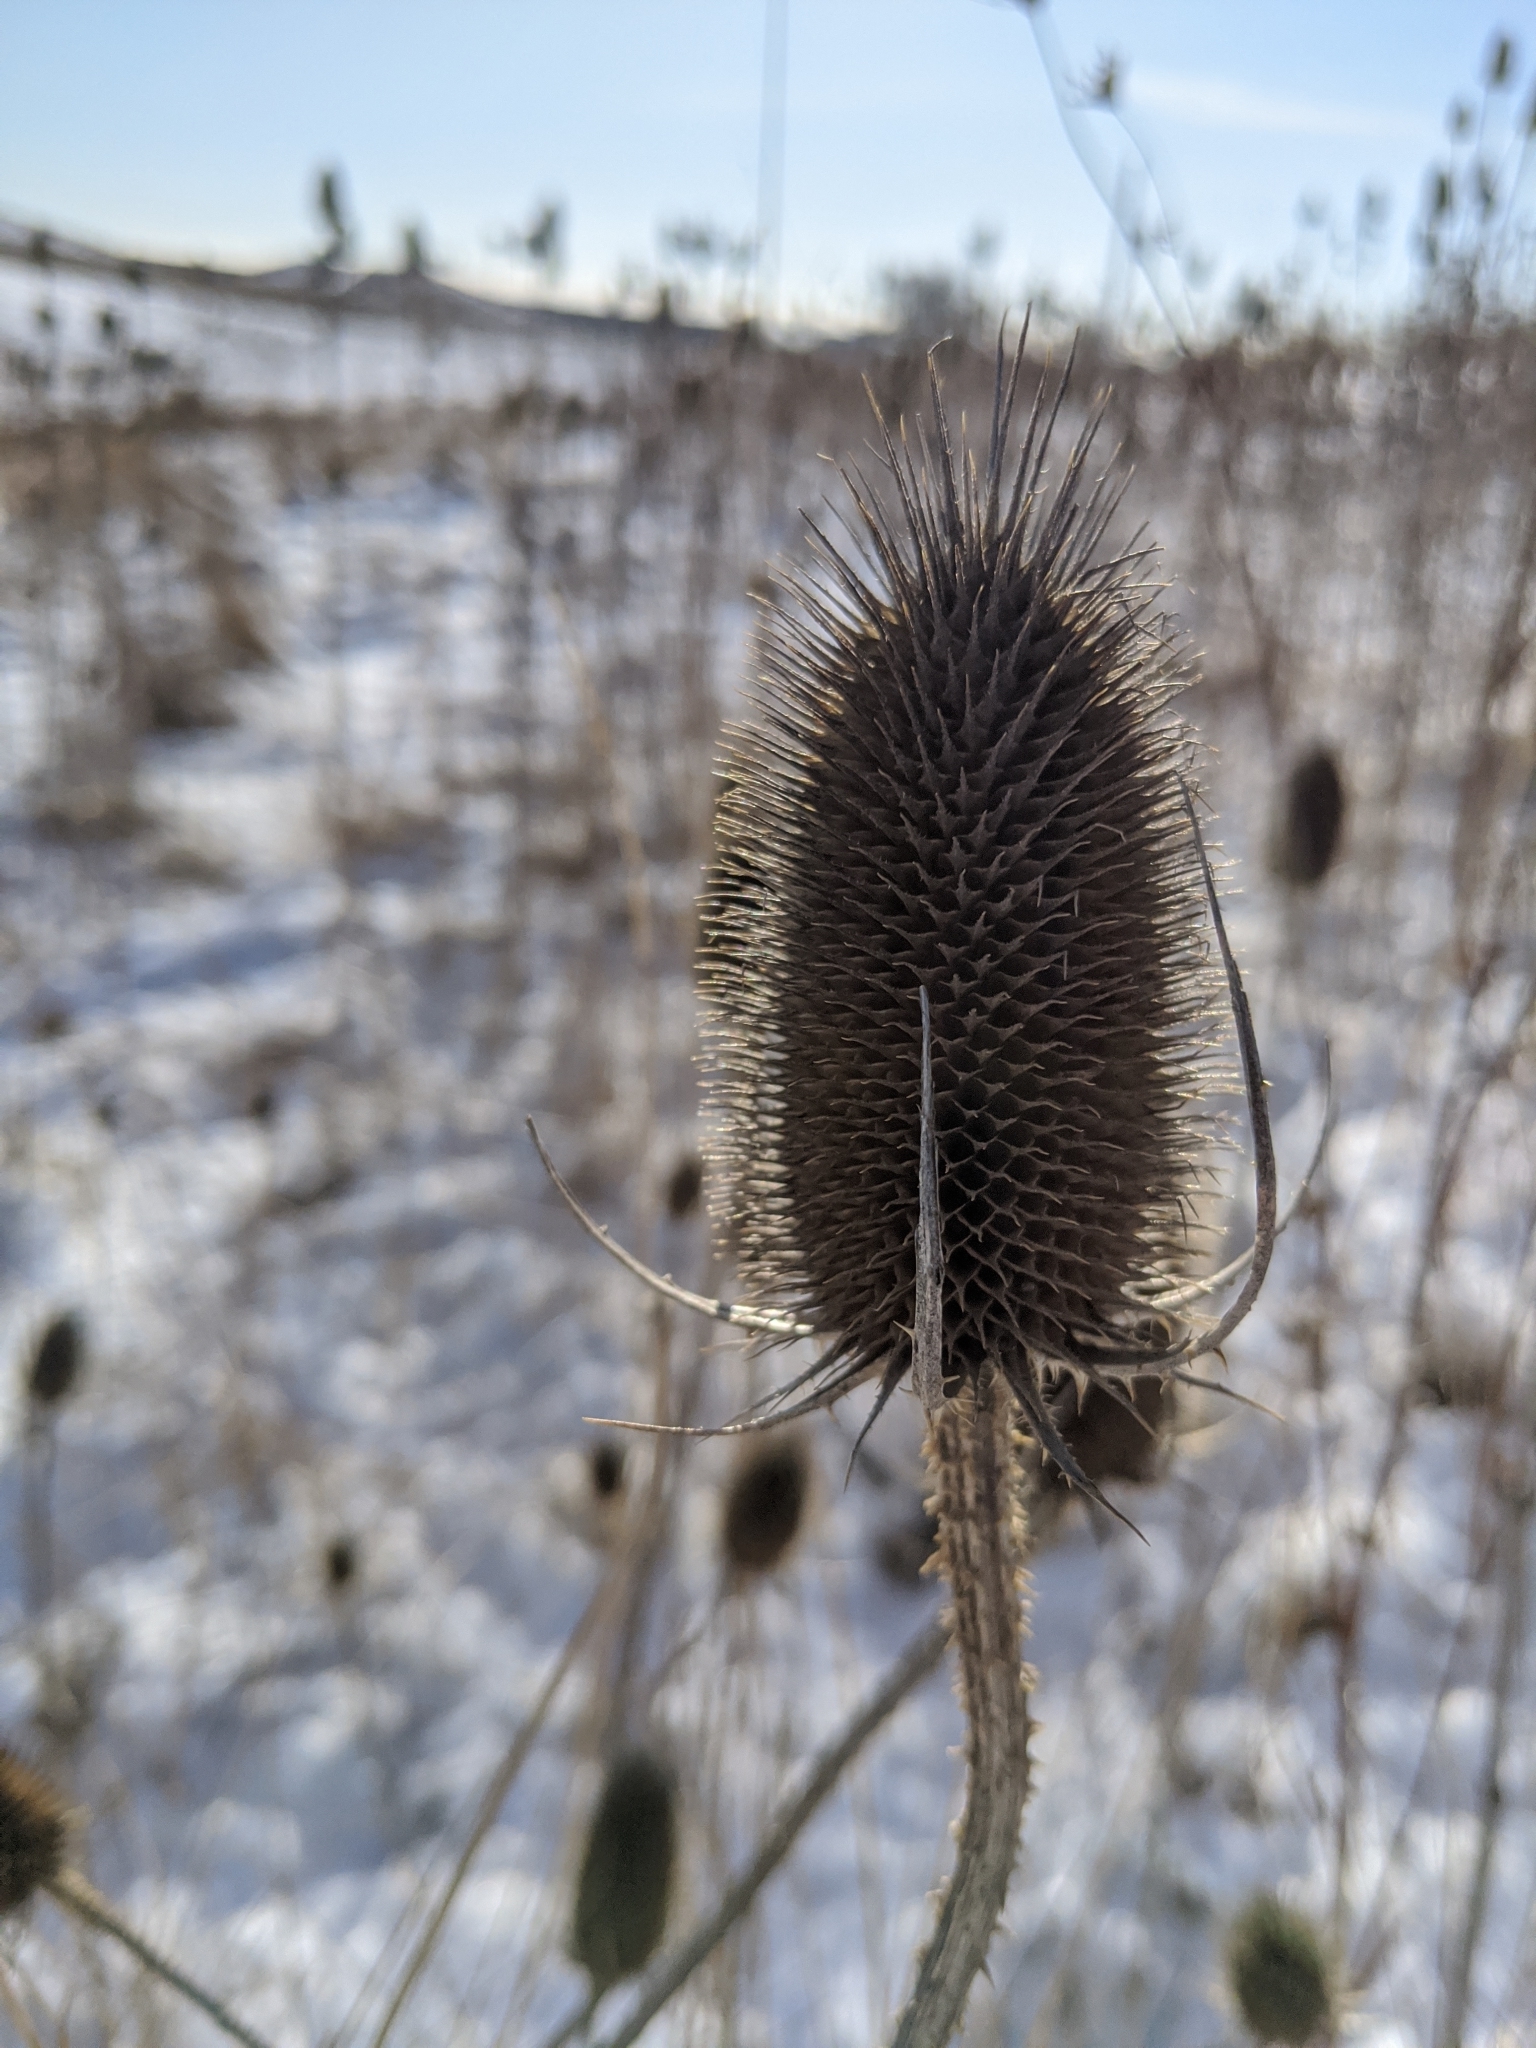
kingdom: Plantae
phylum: Tracheophyta
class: Magnoliopsida
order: Dipsacales
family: Caprifoliaceae
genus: Dipsacus
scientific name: Dipsacus fullonum
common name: Teasel
